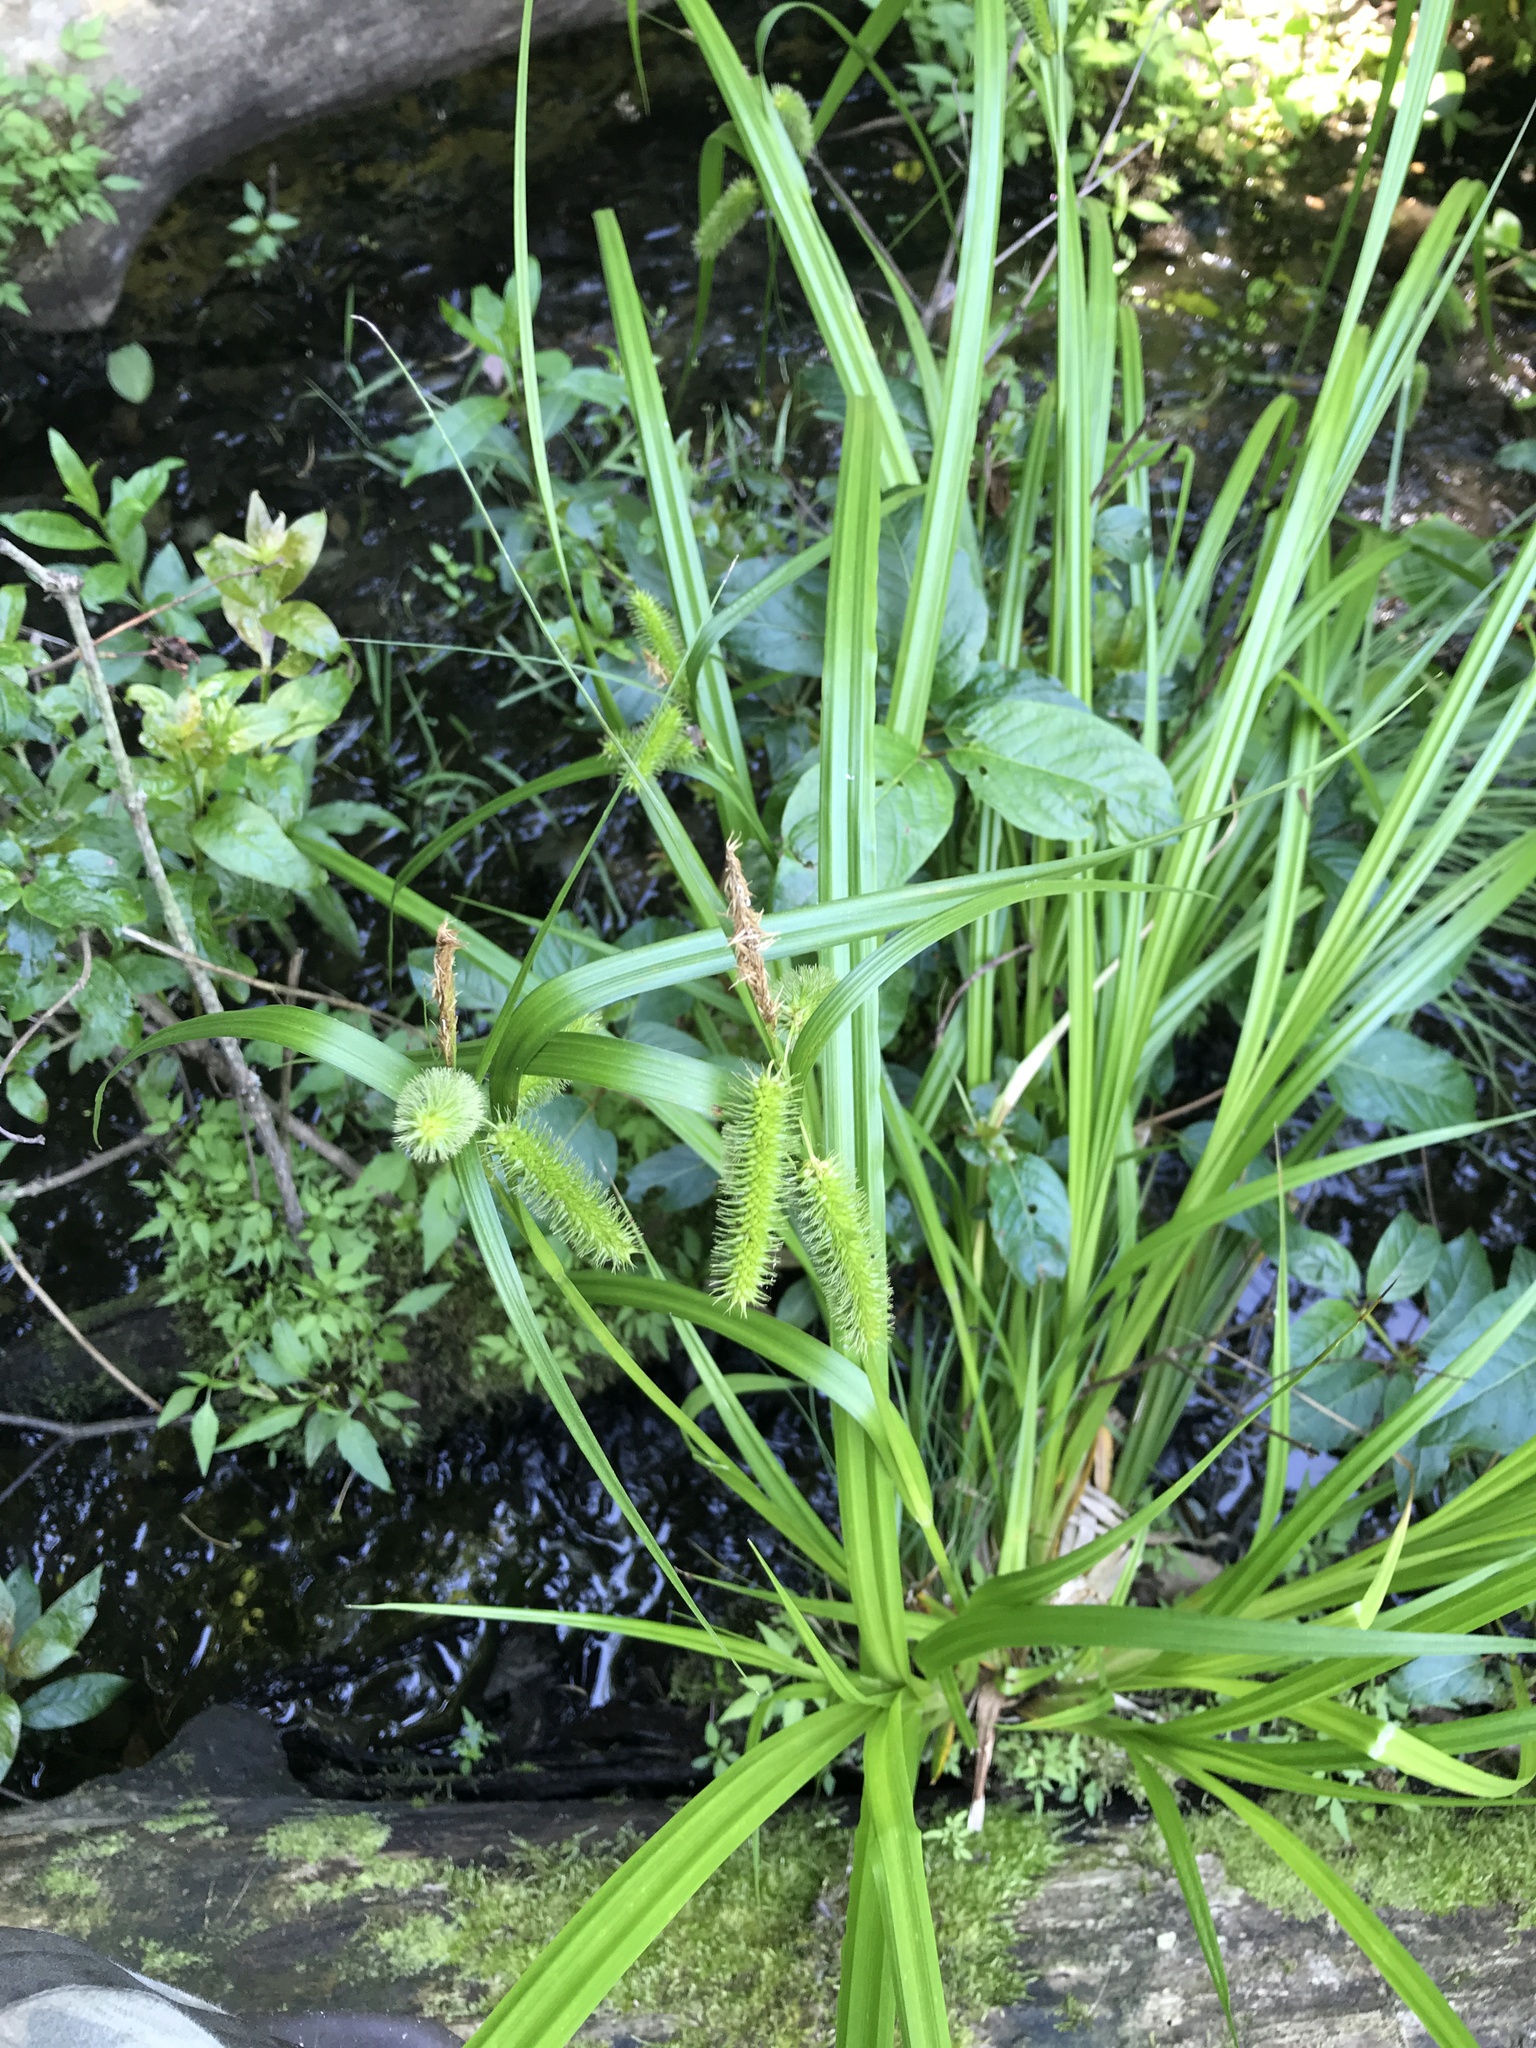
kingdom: Plantae
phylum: Tracheophyta
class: Liliopsida
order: Poales
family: Cyperaceae
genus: Carex
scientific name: Carex comosa
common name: Bristly sedge
